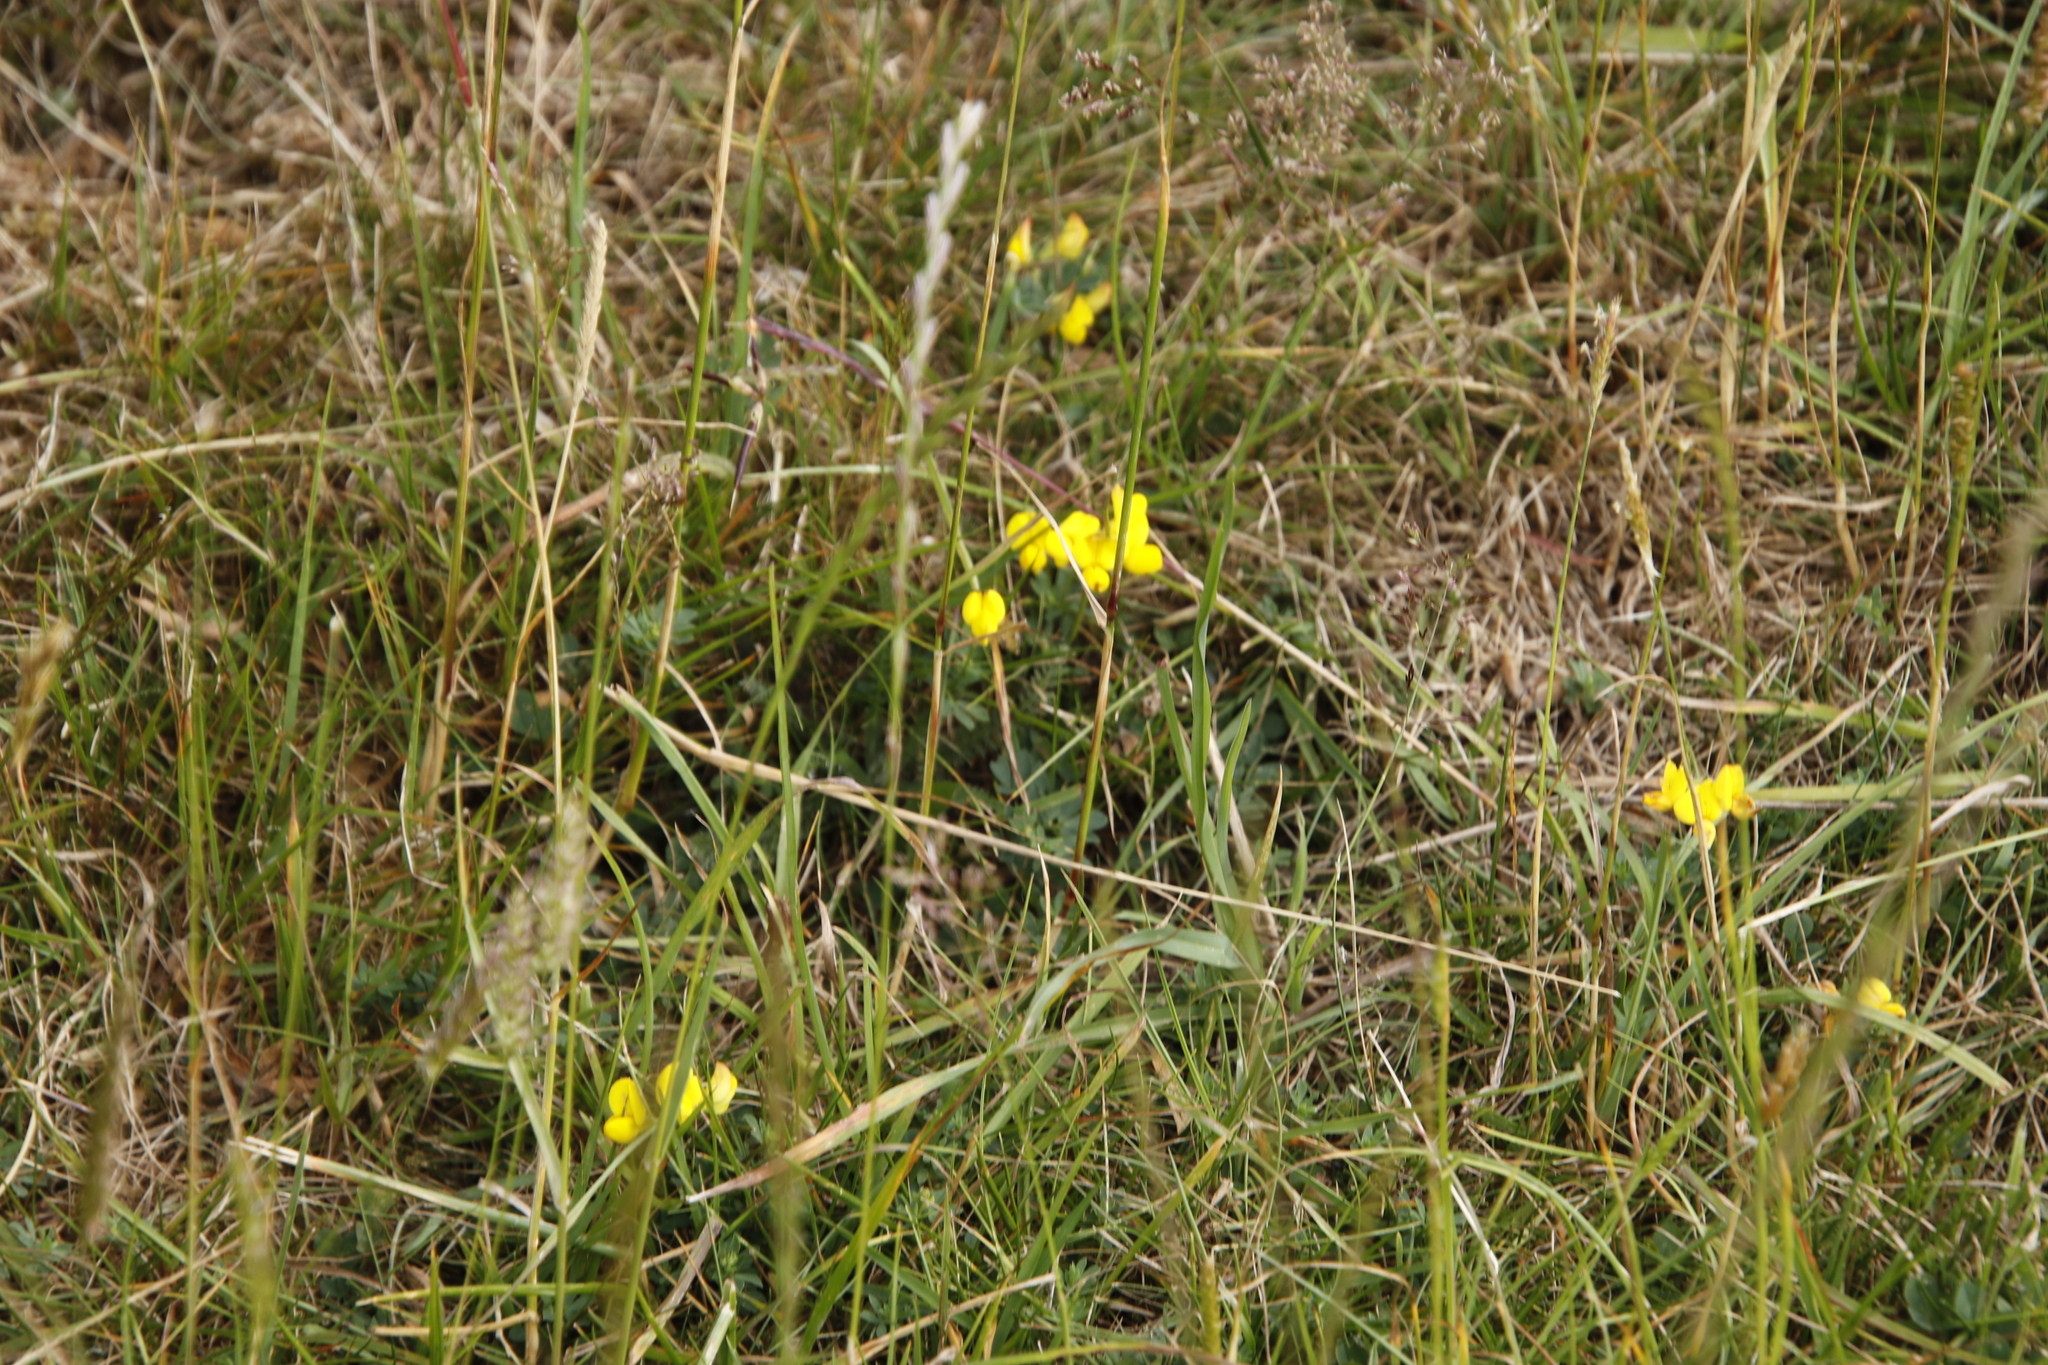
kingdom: Plantae
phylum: Tracheophyta
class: Magnoliopsida
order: Fabales
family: Fabaceae
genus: Lotus
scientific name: Lotus corniculatus
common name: Common bird's-foot-trefoil
